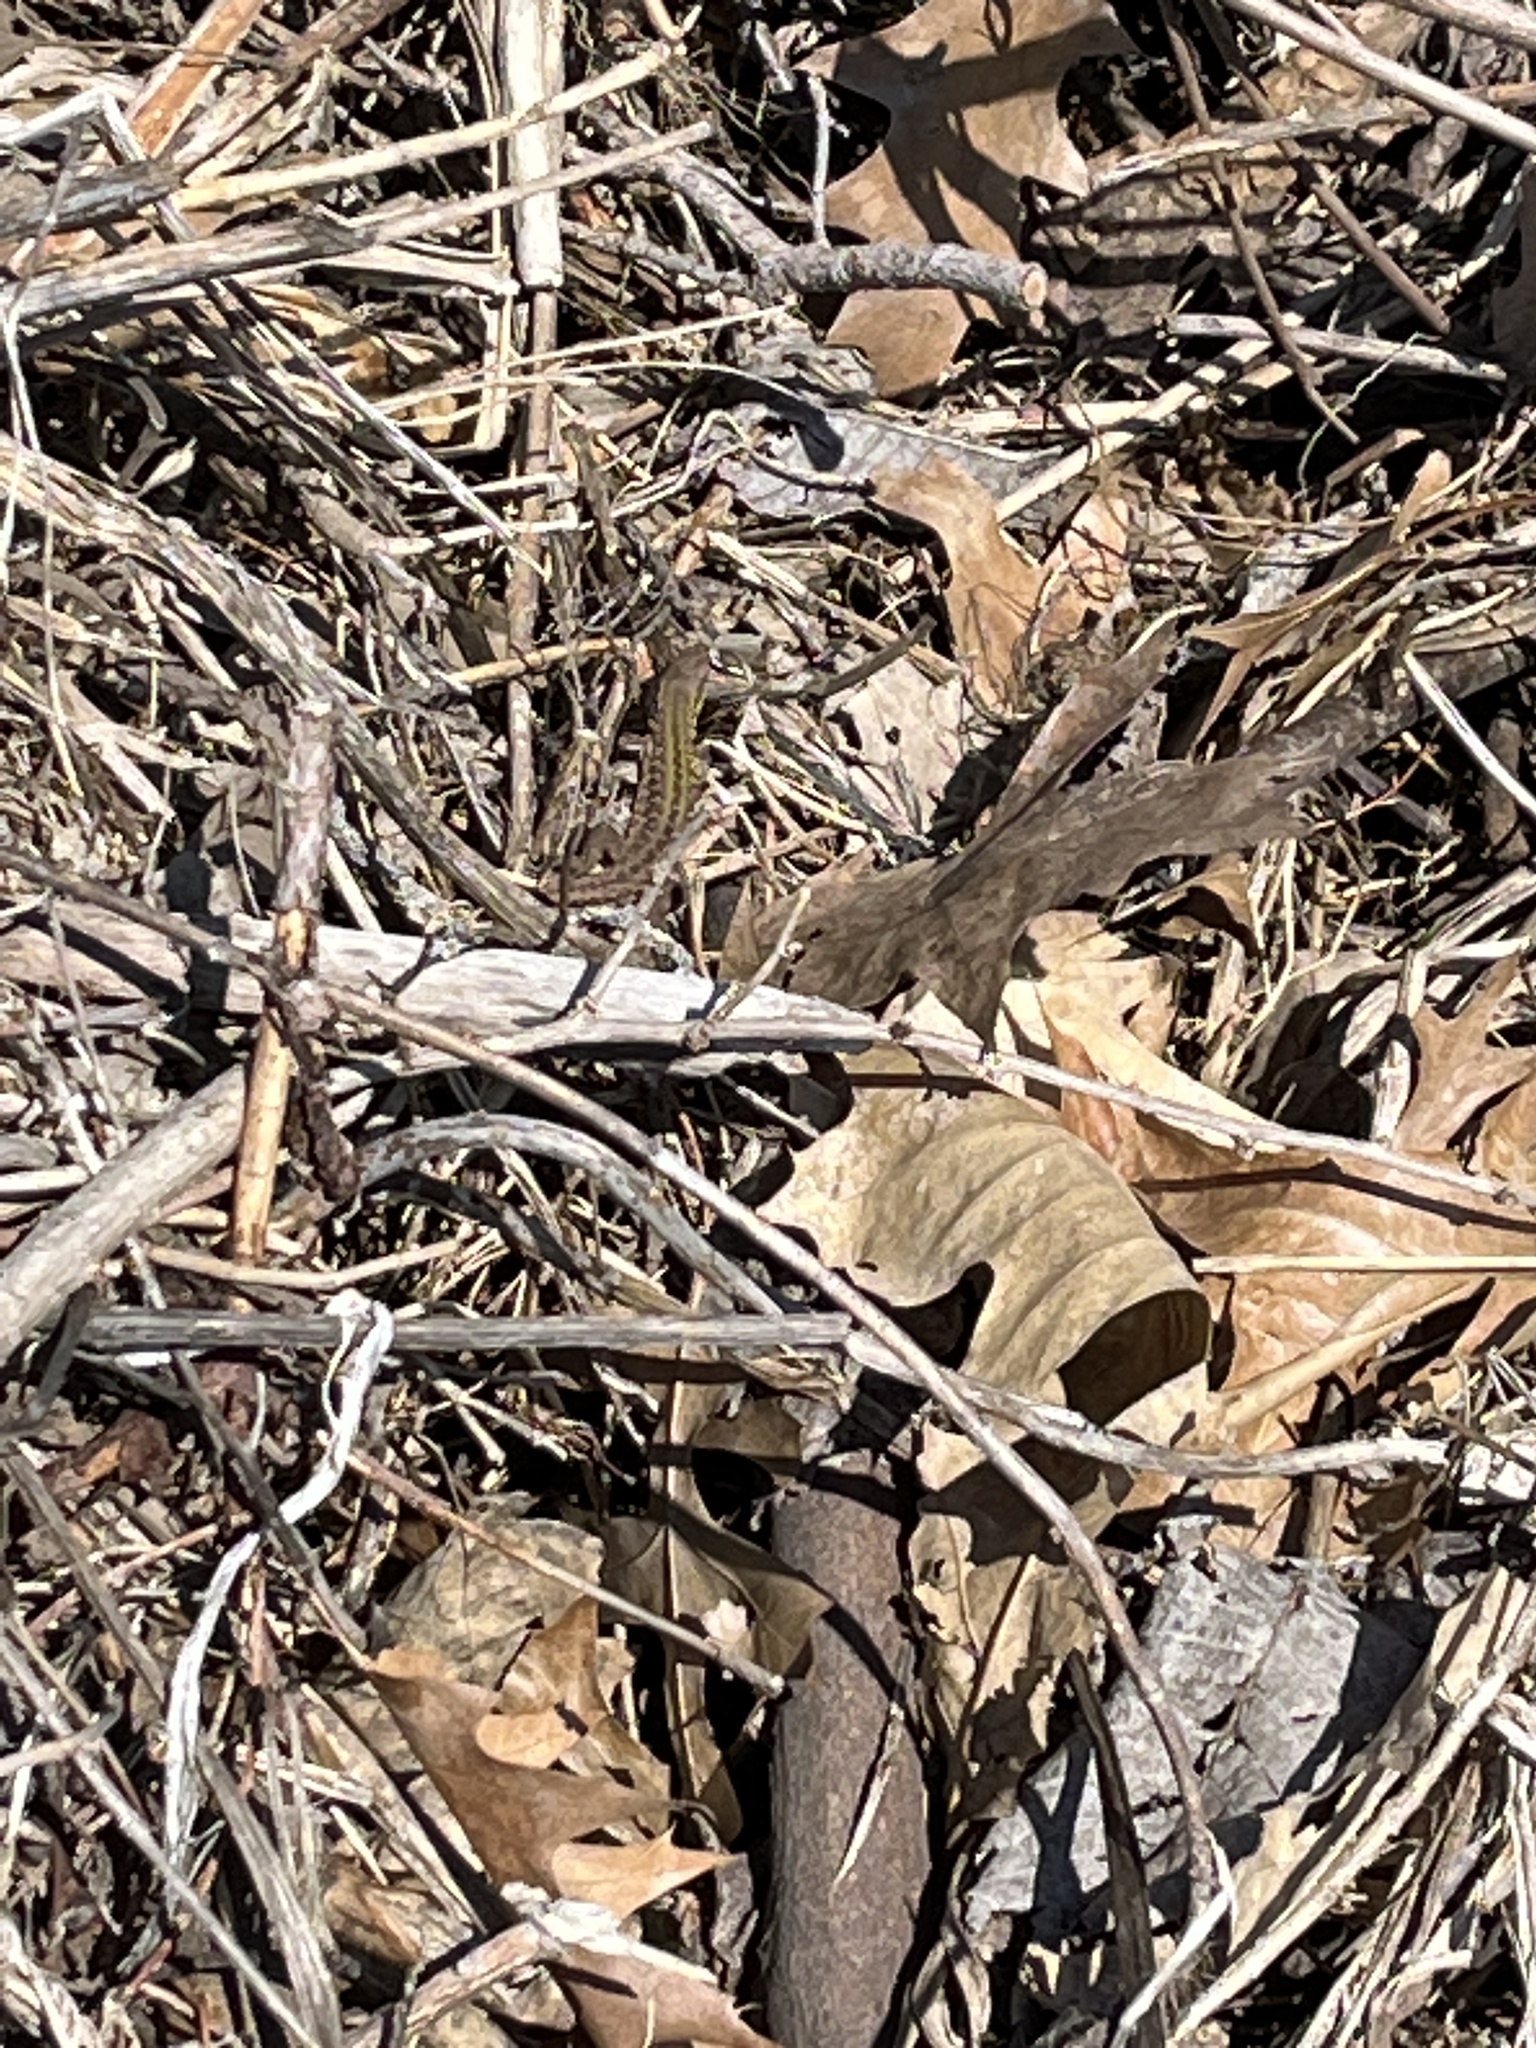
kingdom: Animalia
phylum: Chordata
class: Squamata
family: Lacertidae
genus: Podarcis
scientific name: Podarcis siculus
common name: Italian wall lizard
